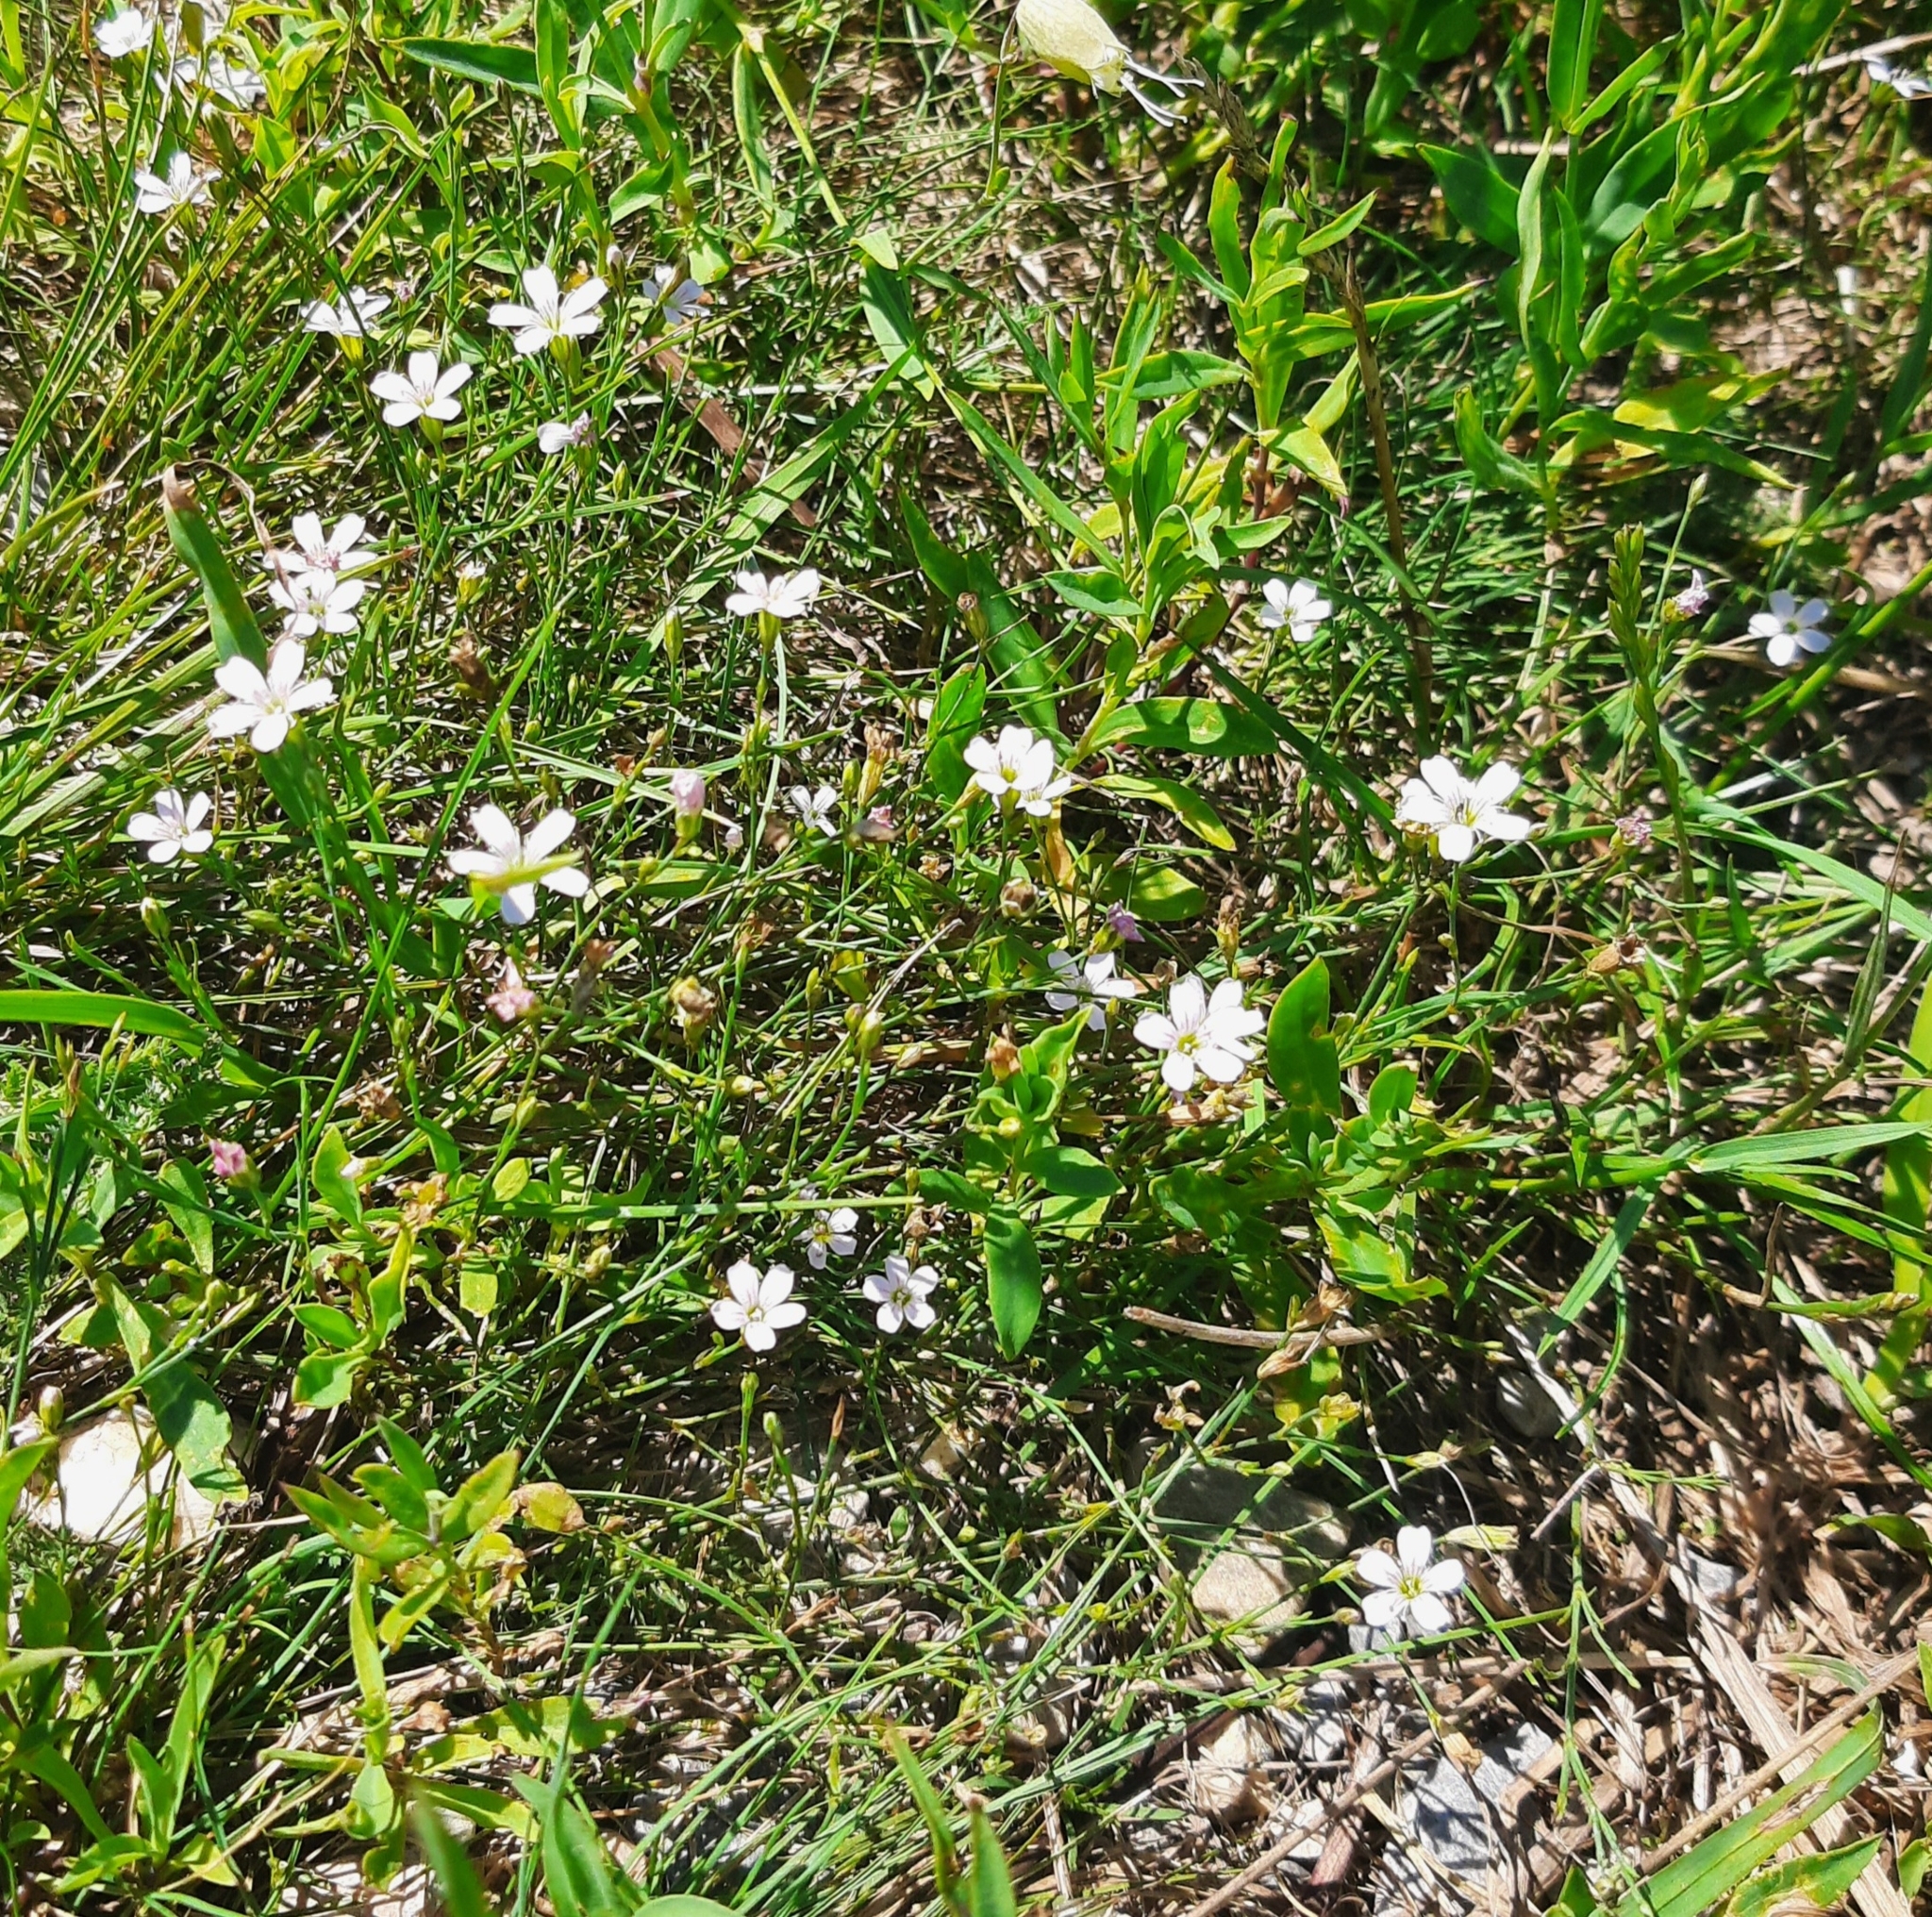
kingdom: Plantae
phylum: Tracheophyta
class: Magnoliopsida
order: Caryophyllales
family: Caryophyllaceae
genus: Petrorhagia
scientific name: Petrorhagia saxifraga
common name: Tunicflower
